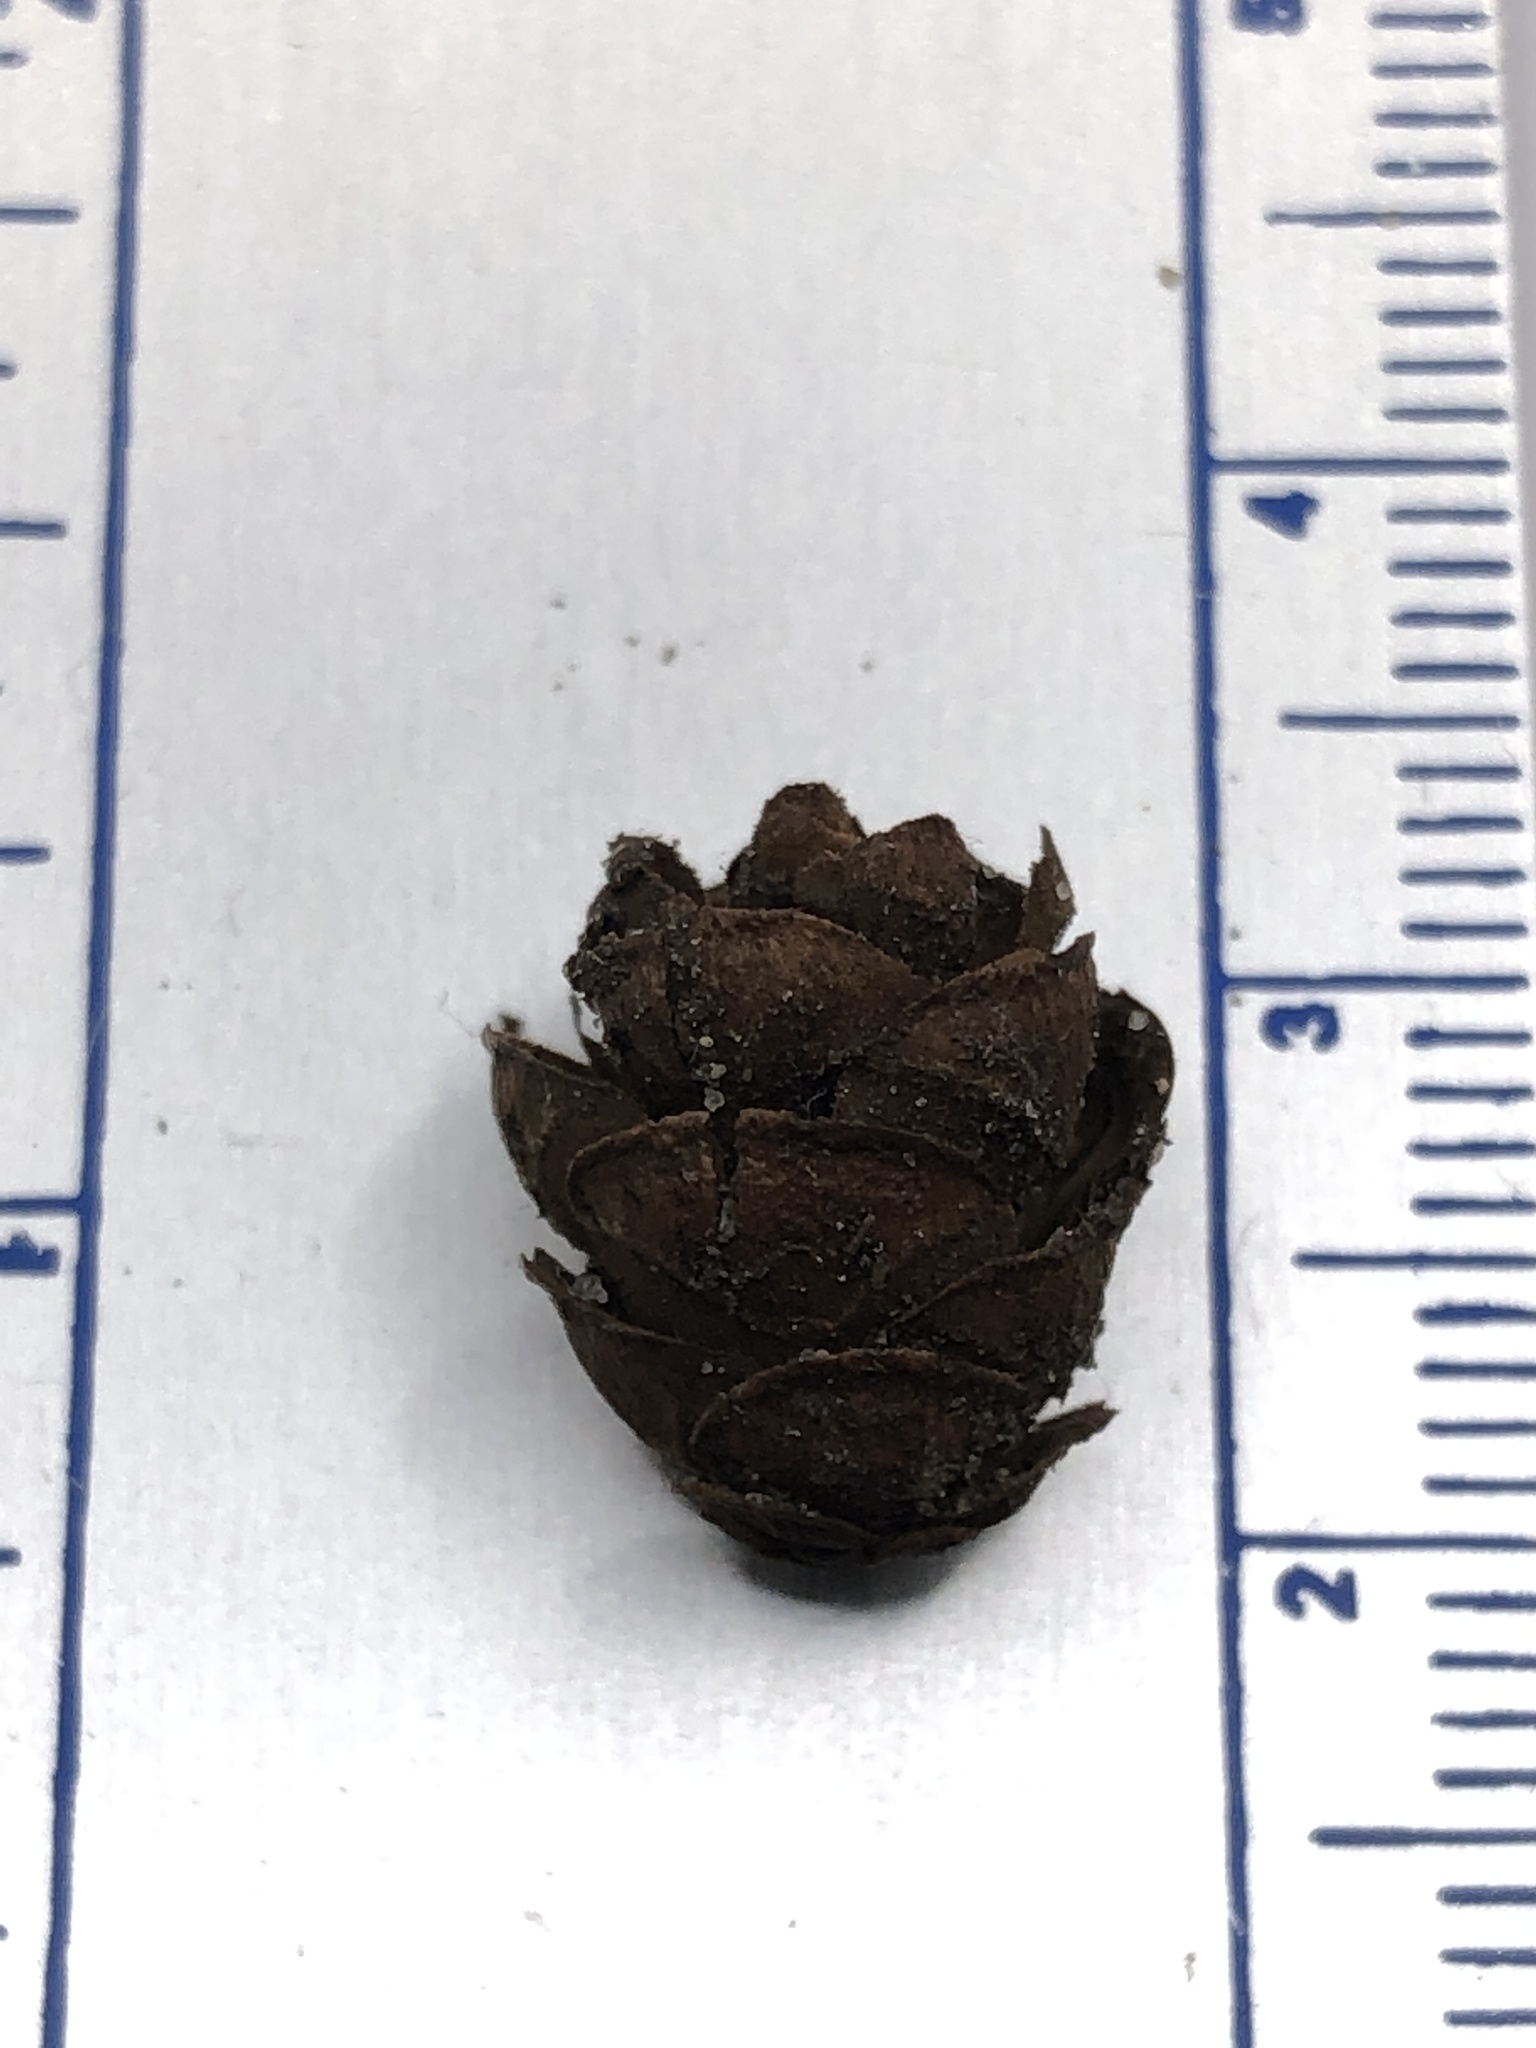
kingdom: Plantae
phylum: Tracheophyta
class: Pinopsida
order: Pinales
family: Pinaceae
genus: Tsuga
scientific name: Tsuga canadensis
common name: Eastern hemlock
